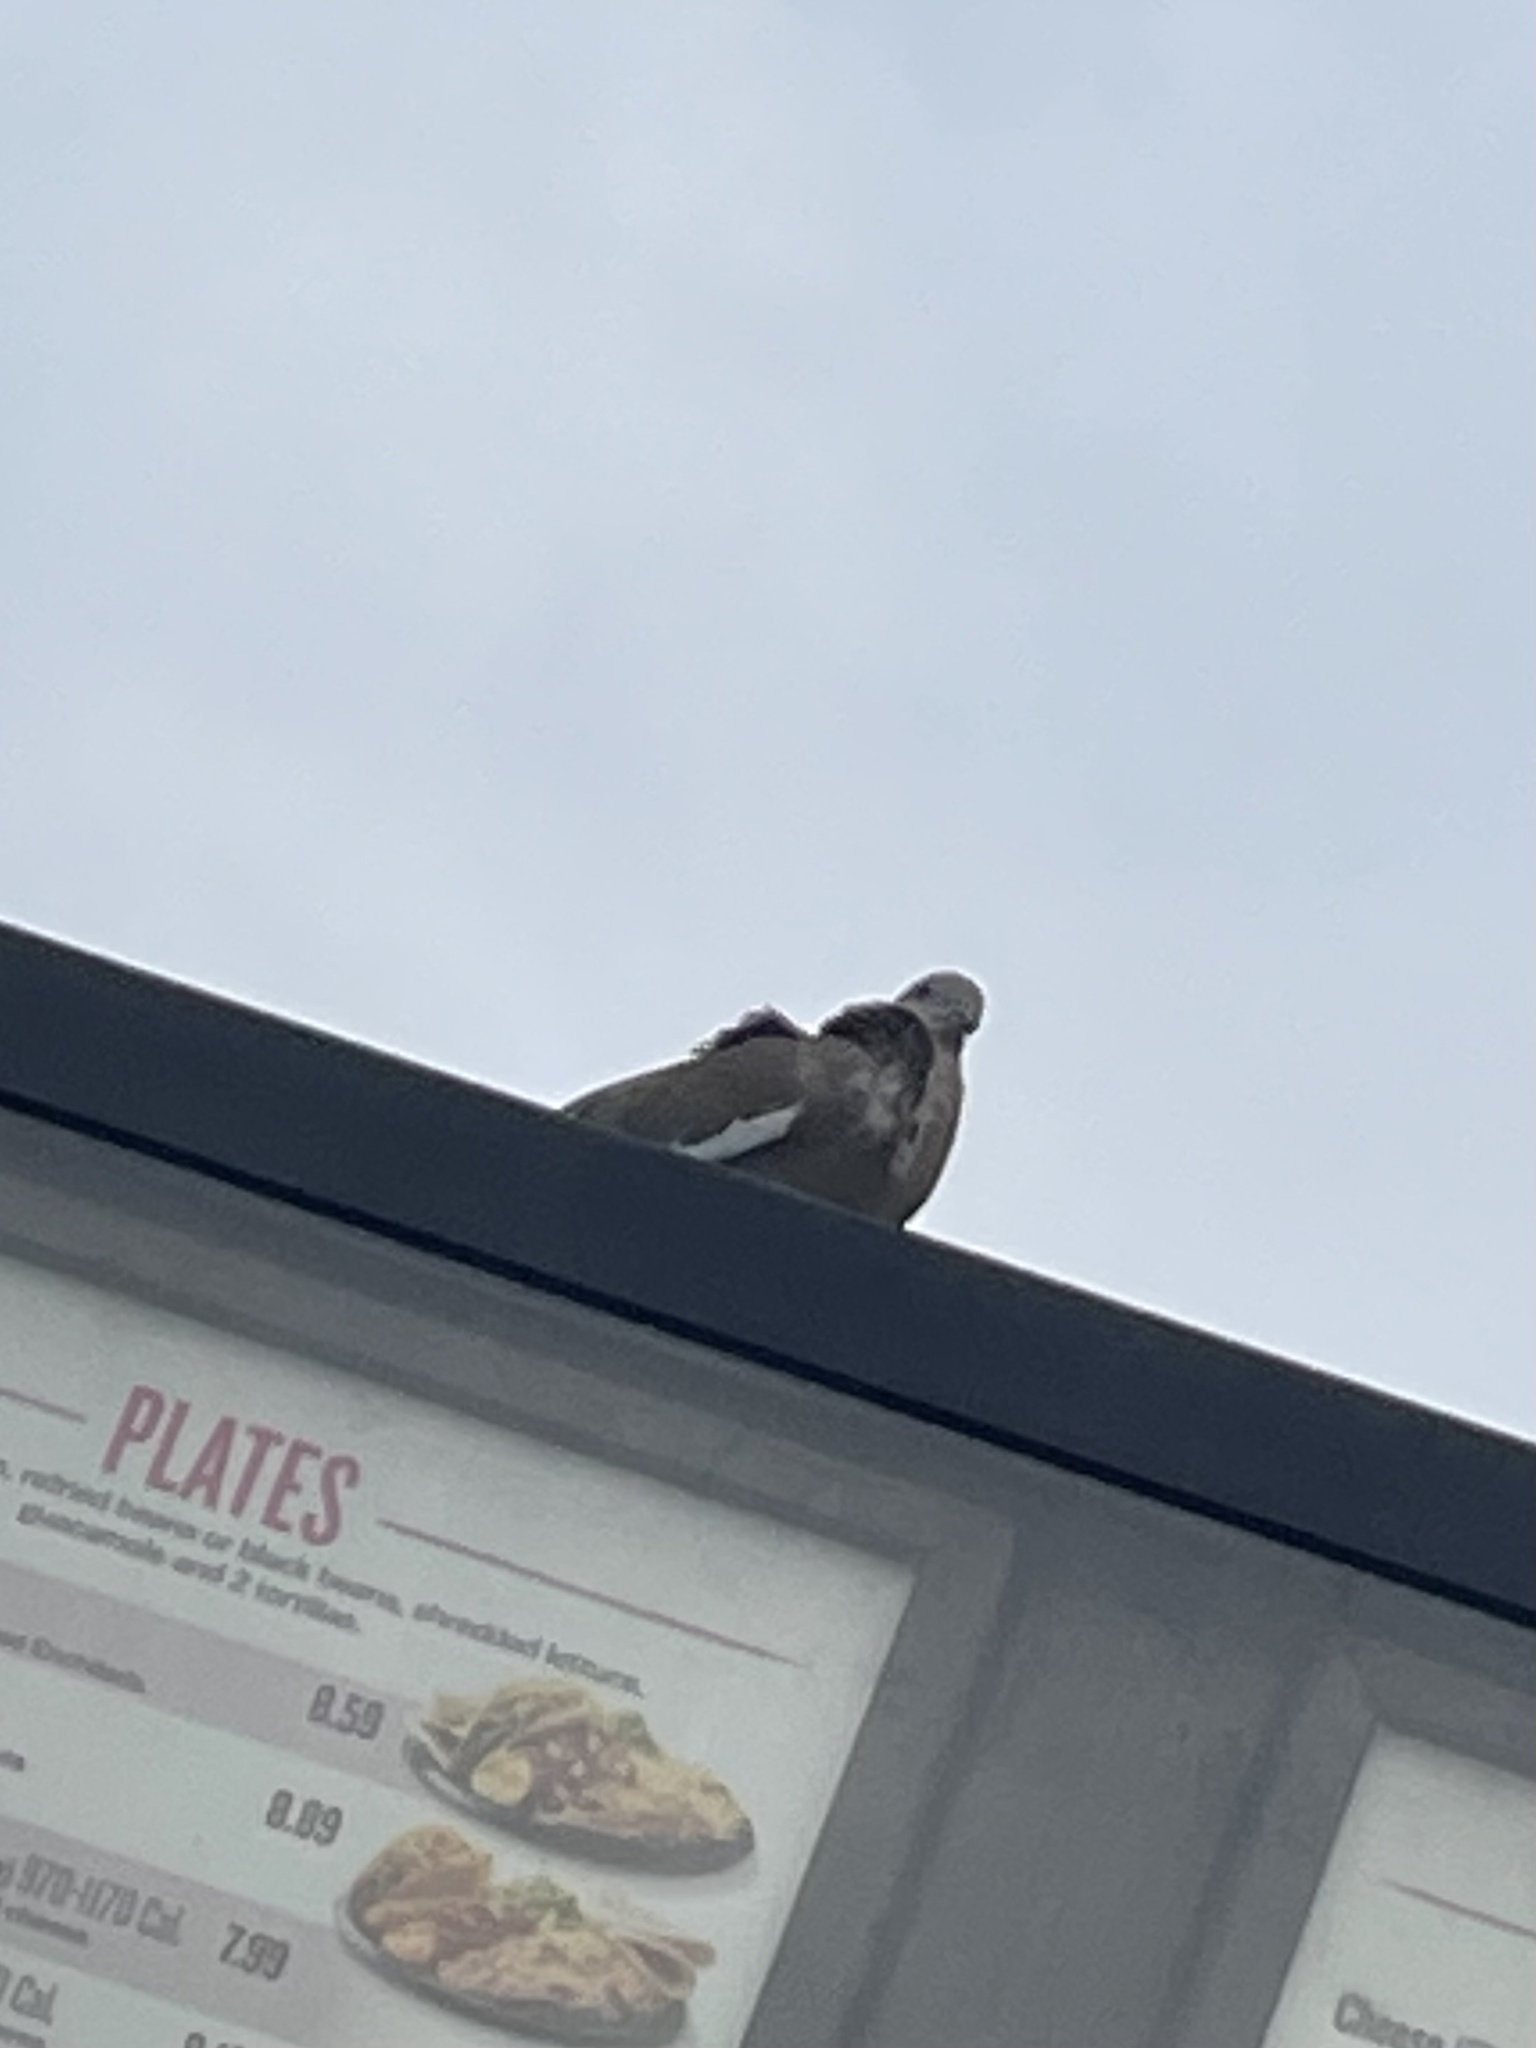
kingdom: Animalia
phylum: Chordata
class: Aves
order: Columbiformes
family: Columbidae
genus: Zenaida
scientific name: Zenaida asiatica
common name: White-winged dove
